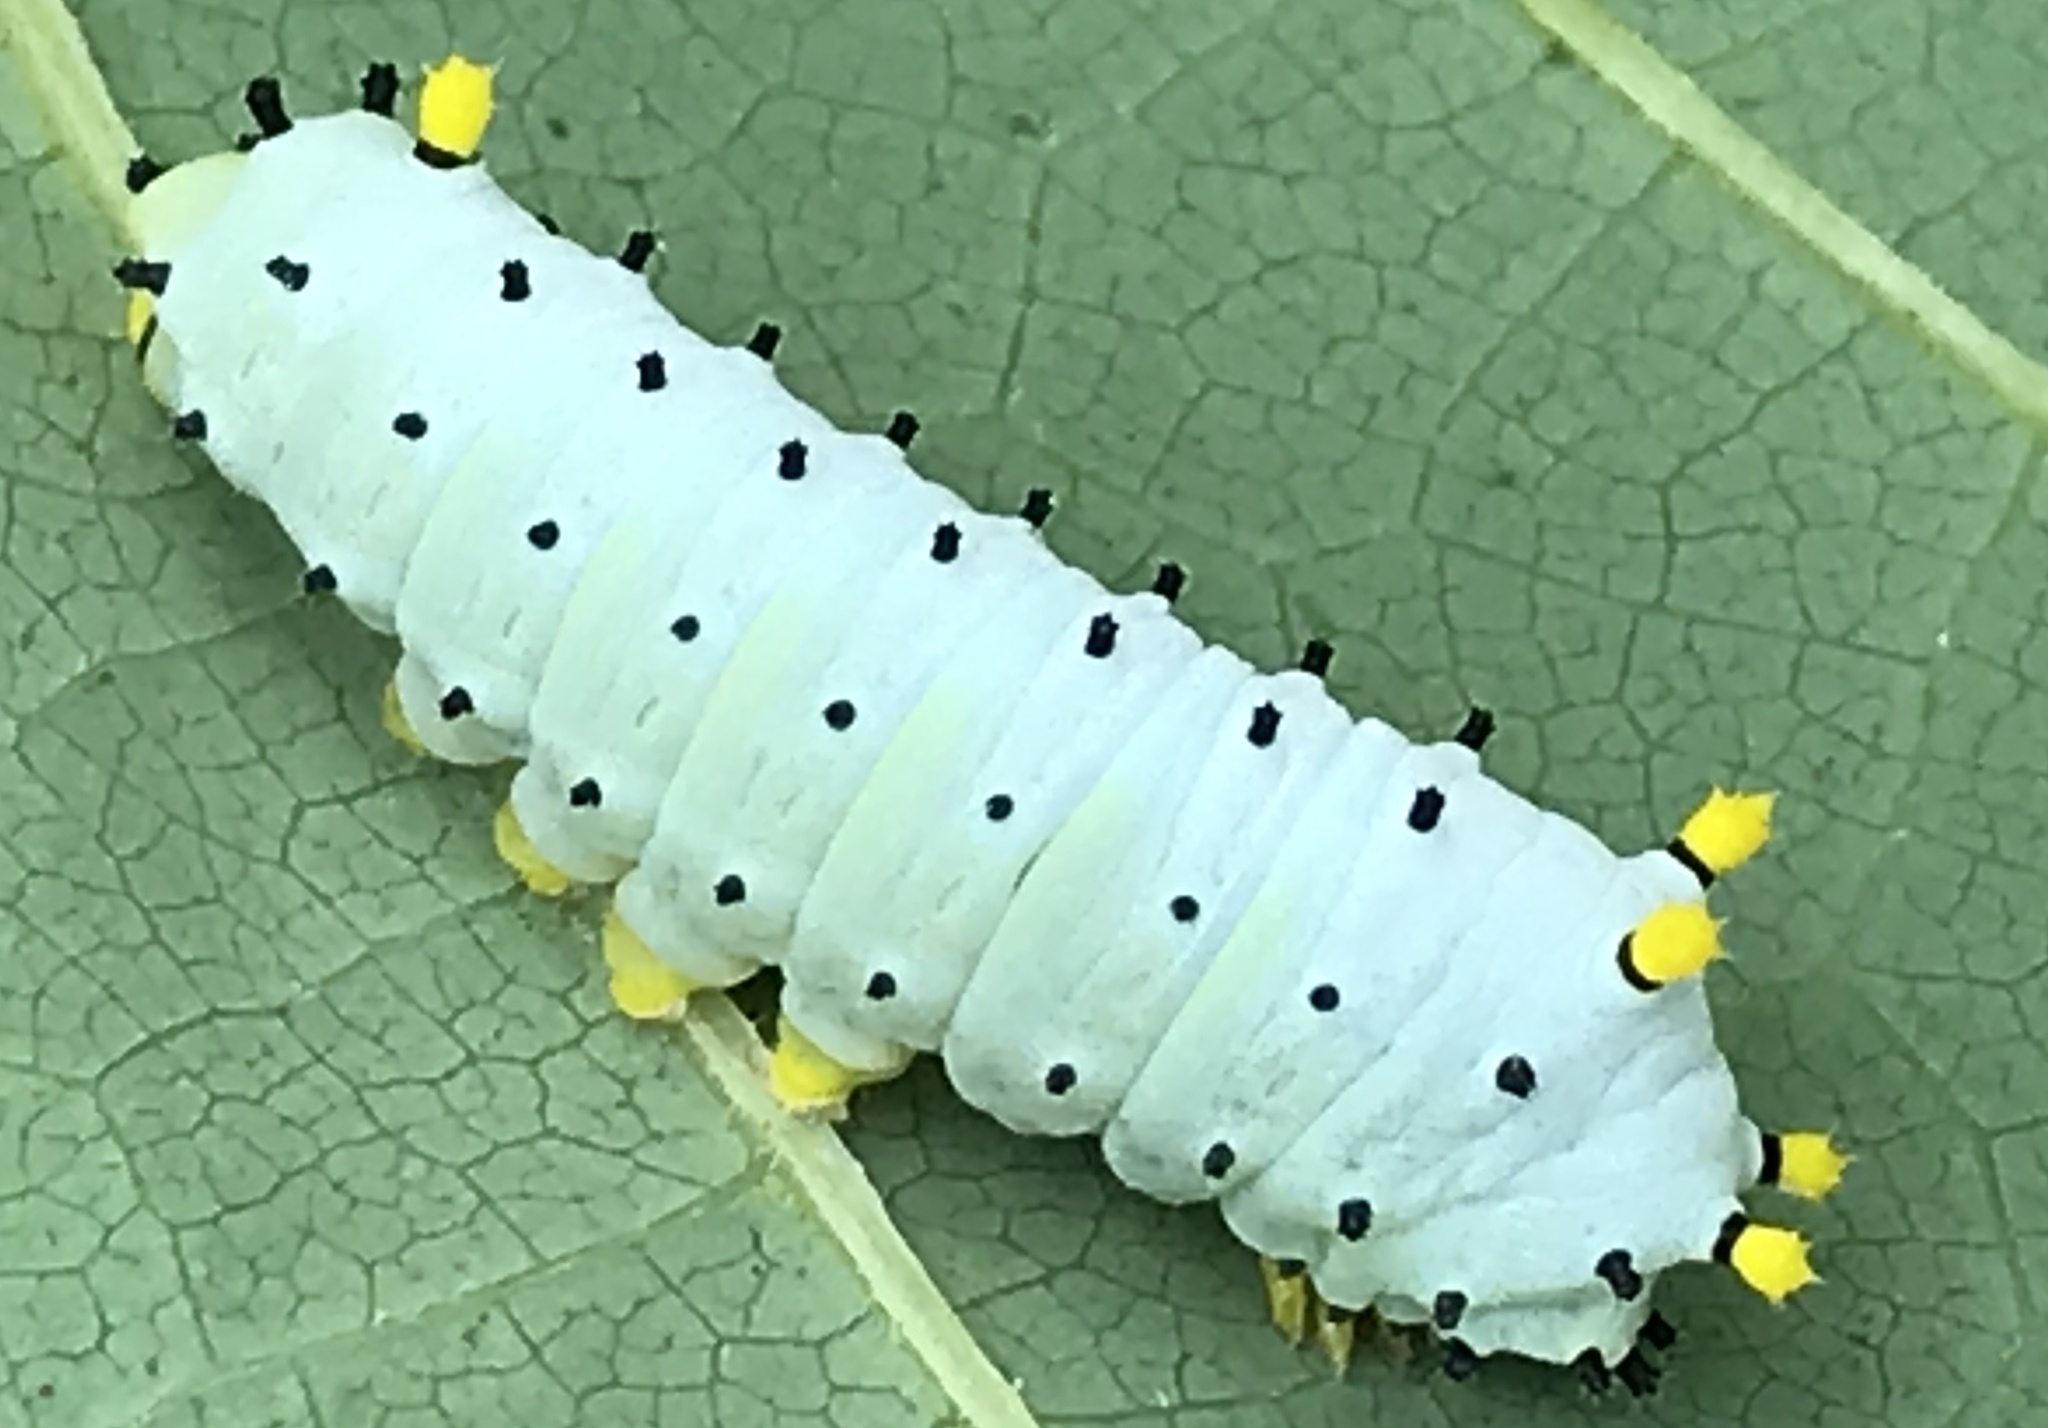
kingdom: Animalia
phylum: Arthropoda
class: Insecta
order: Lepidoptera
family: Saturniidae
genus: Callosamia
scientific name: Callosamia promethea
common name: Promethea silkmoth
